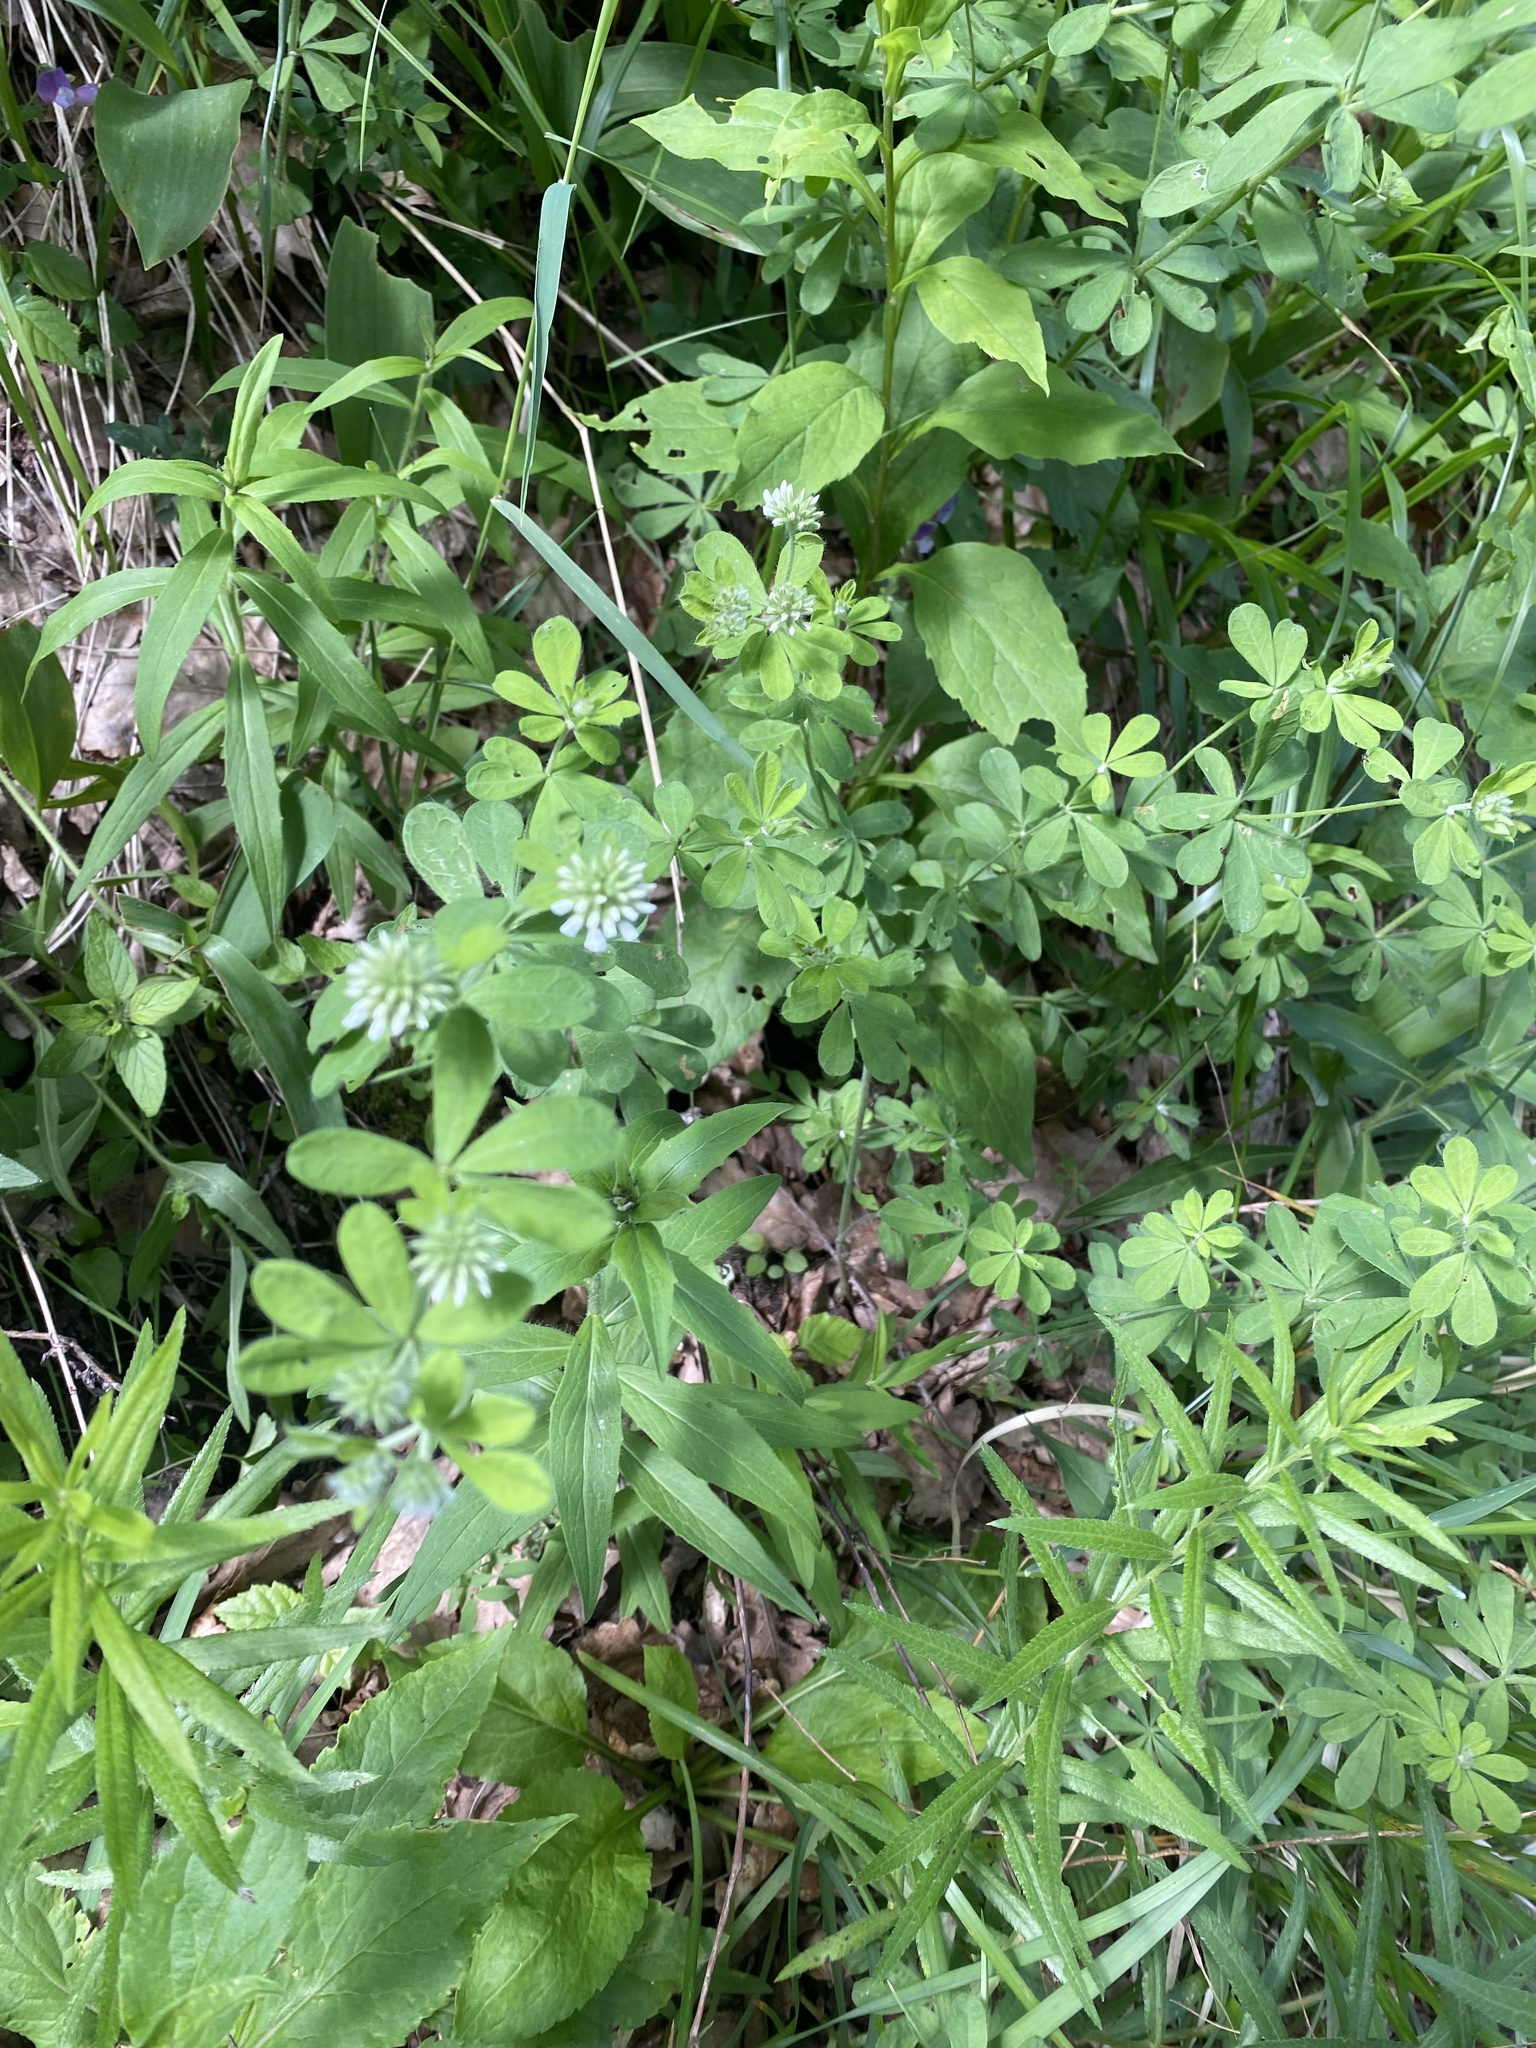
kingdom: Plantae
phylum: Tracheophyta
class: Magnoliopsida
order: Fabales
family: Fabaceae
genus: Lotus
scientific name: Lotus herbaceus
